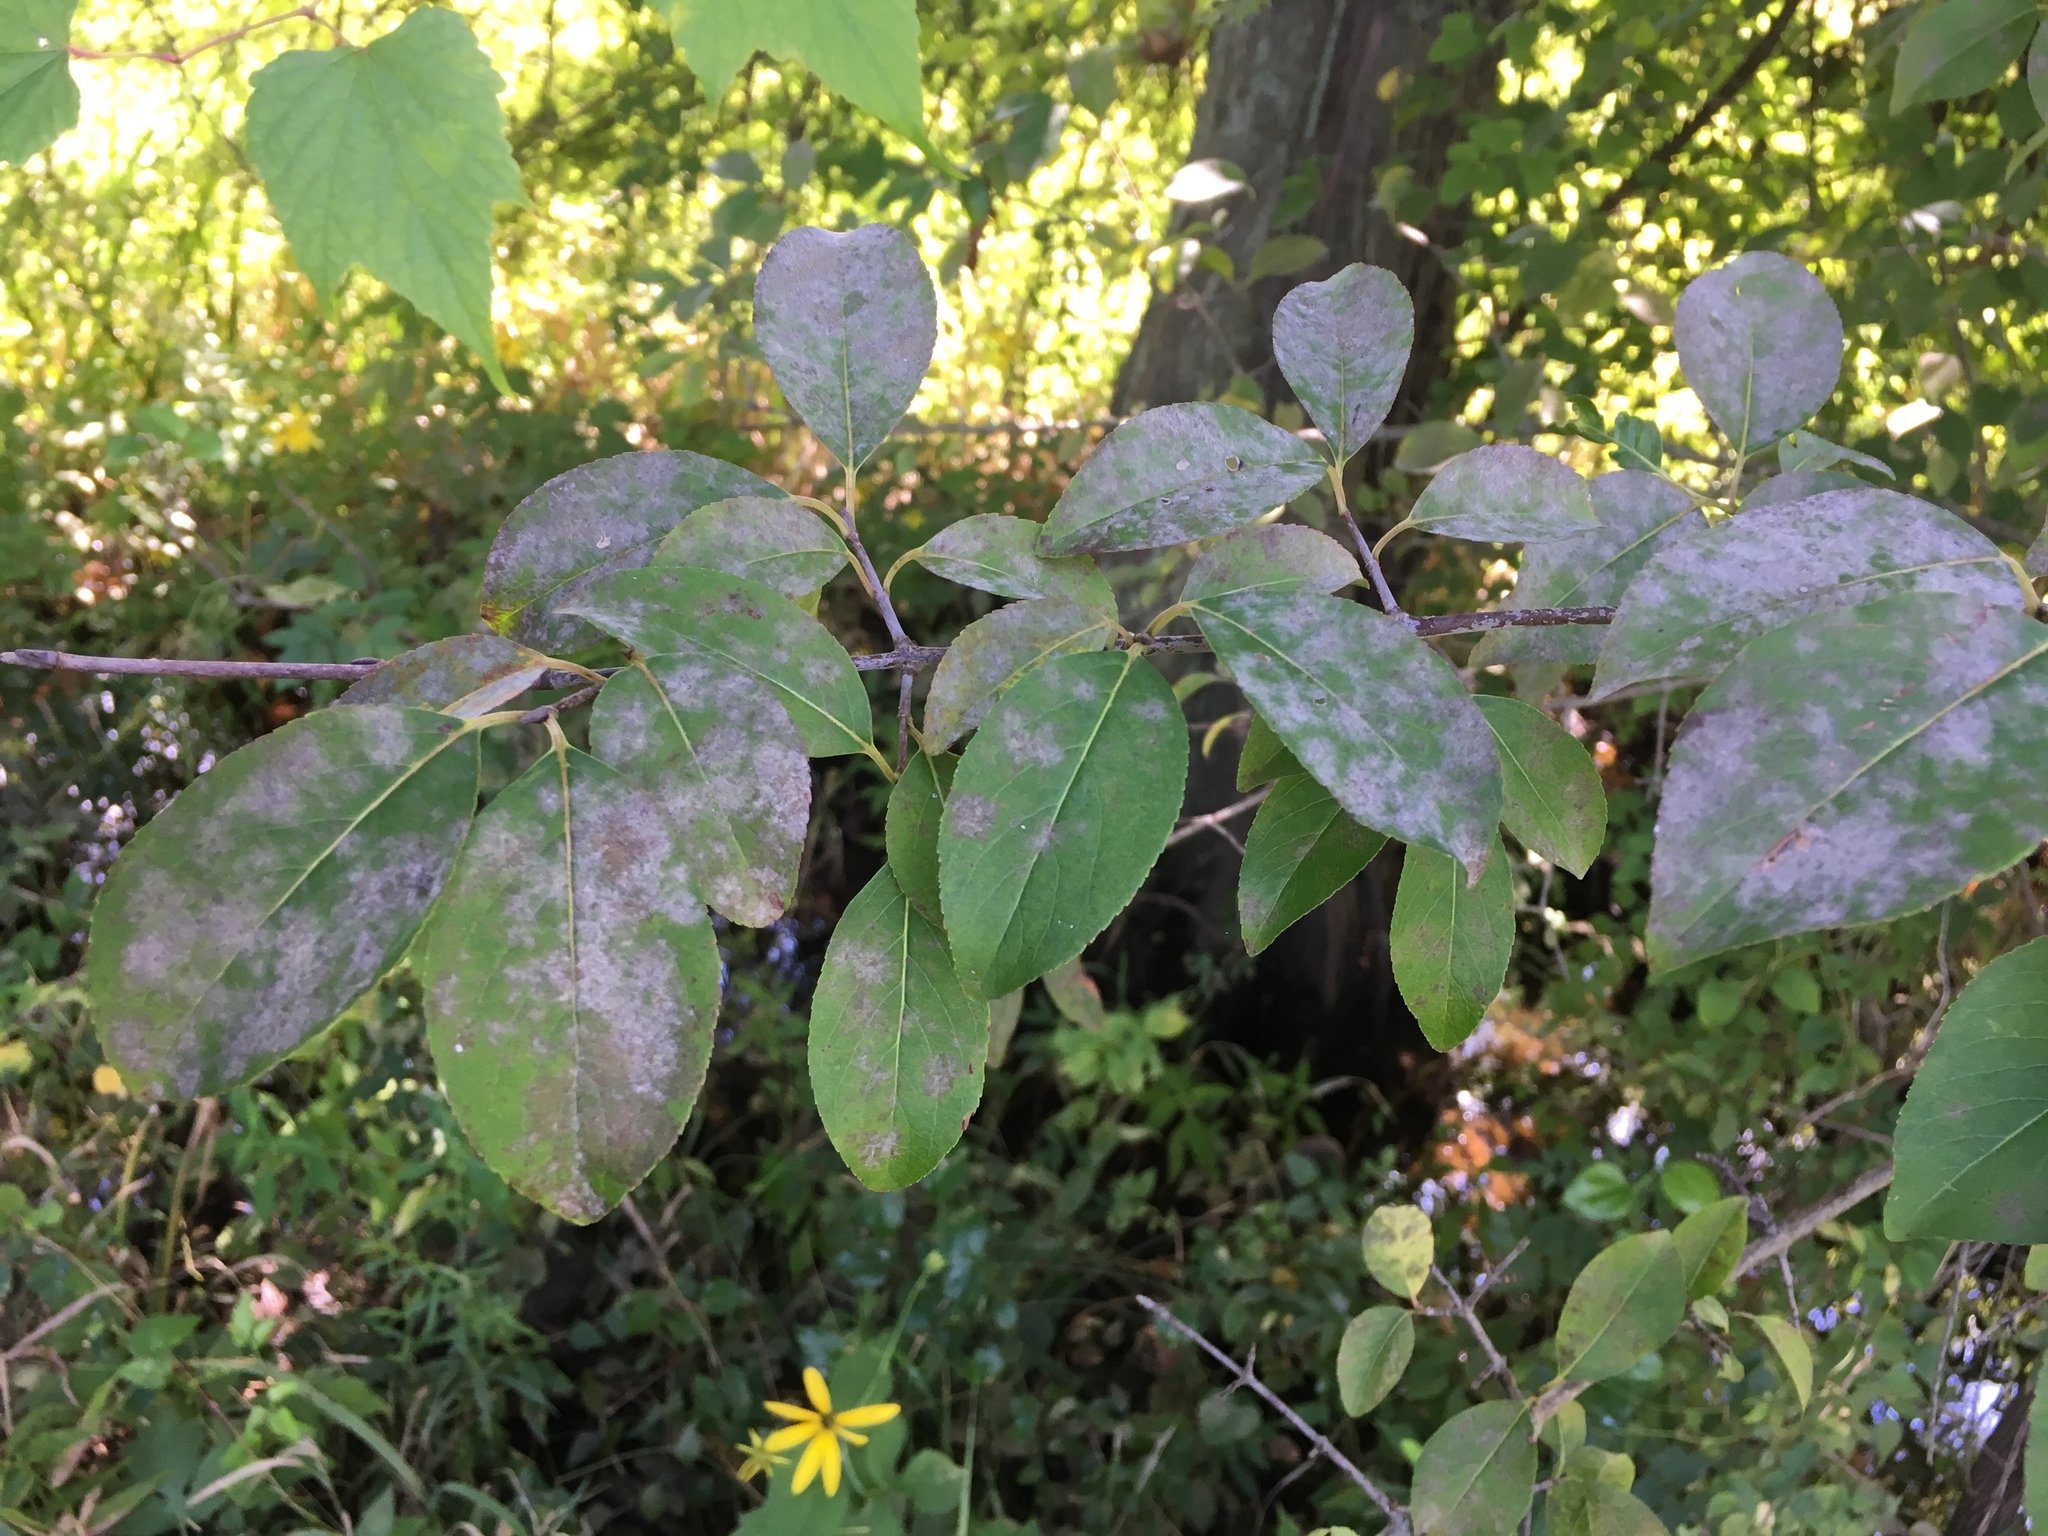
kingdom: Plantae
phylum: Tracheophyta
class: Magnoliopsida
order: Dipsacales
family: Viburnaceae
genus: Viburnum
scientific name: Viburnum prunifolium
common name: Black haw
